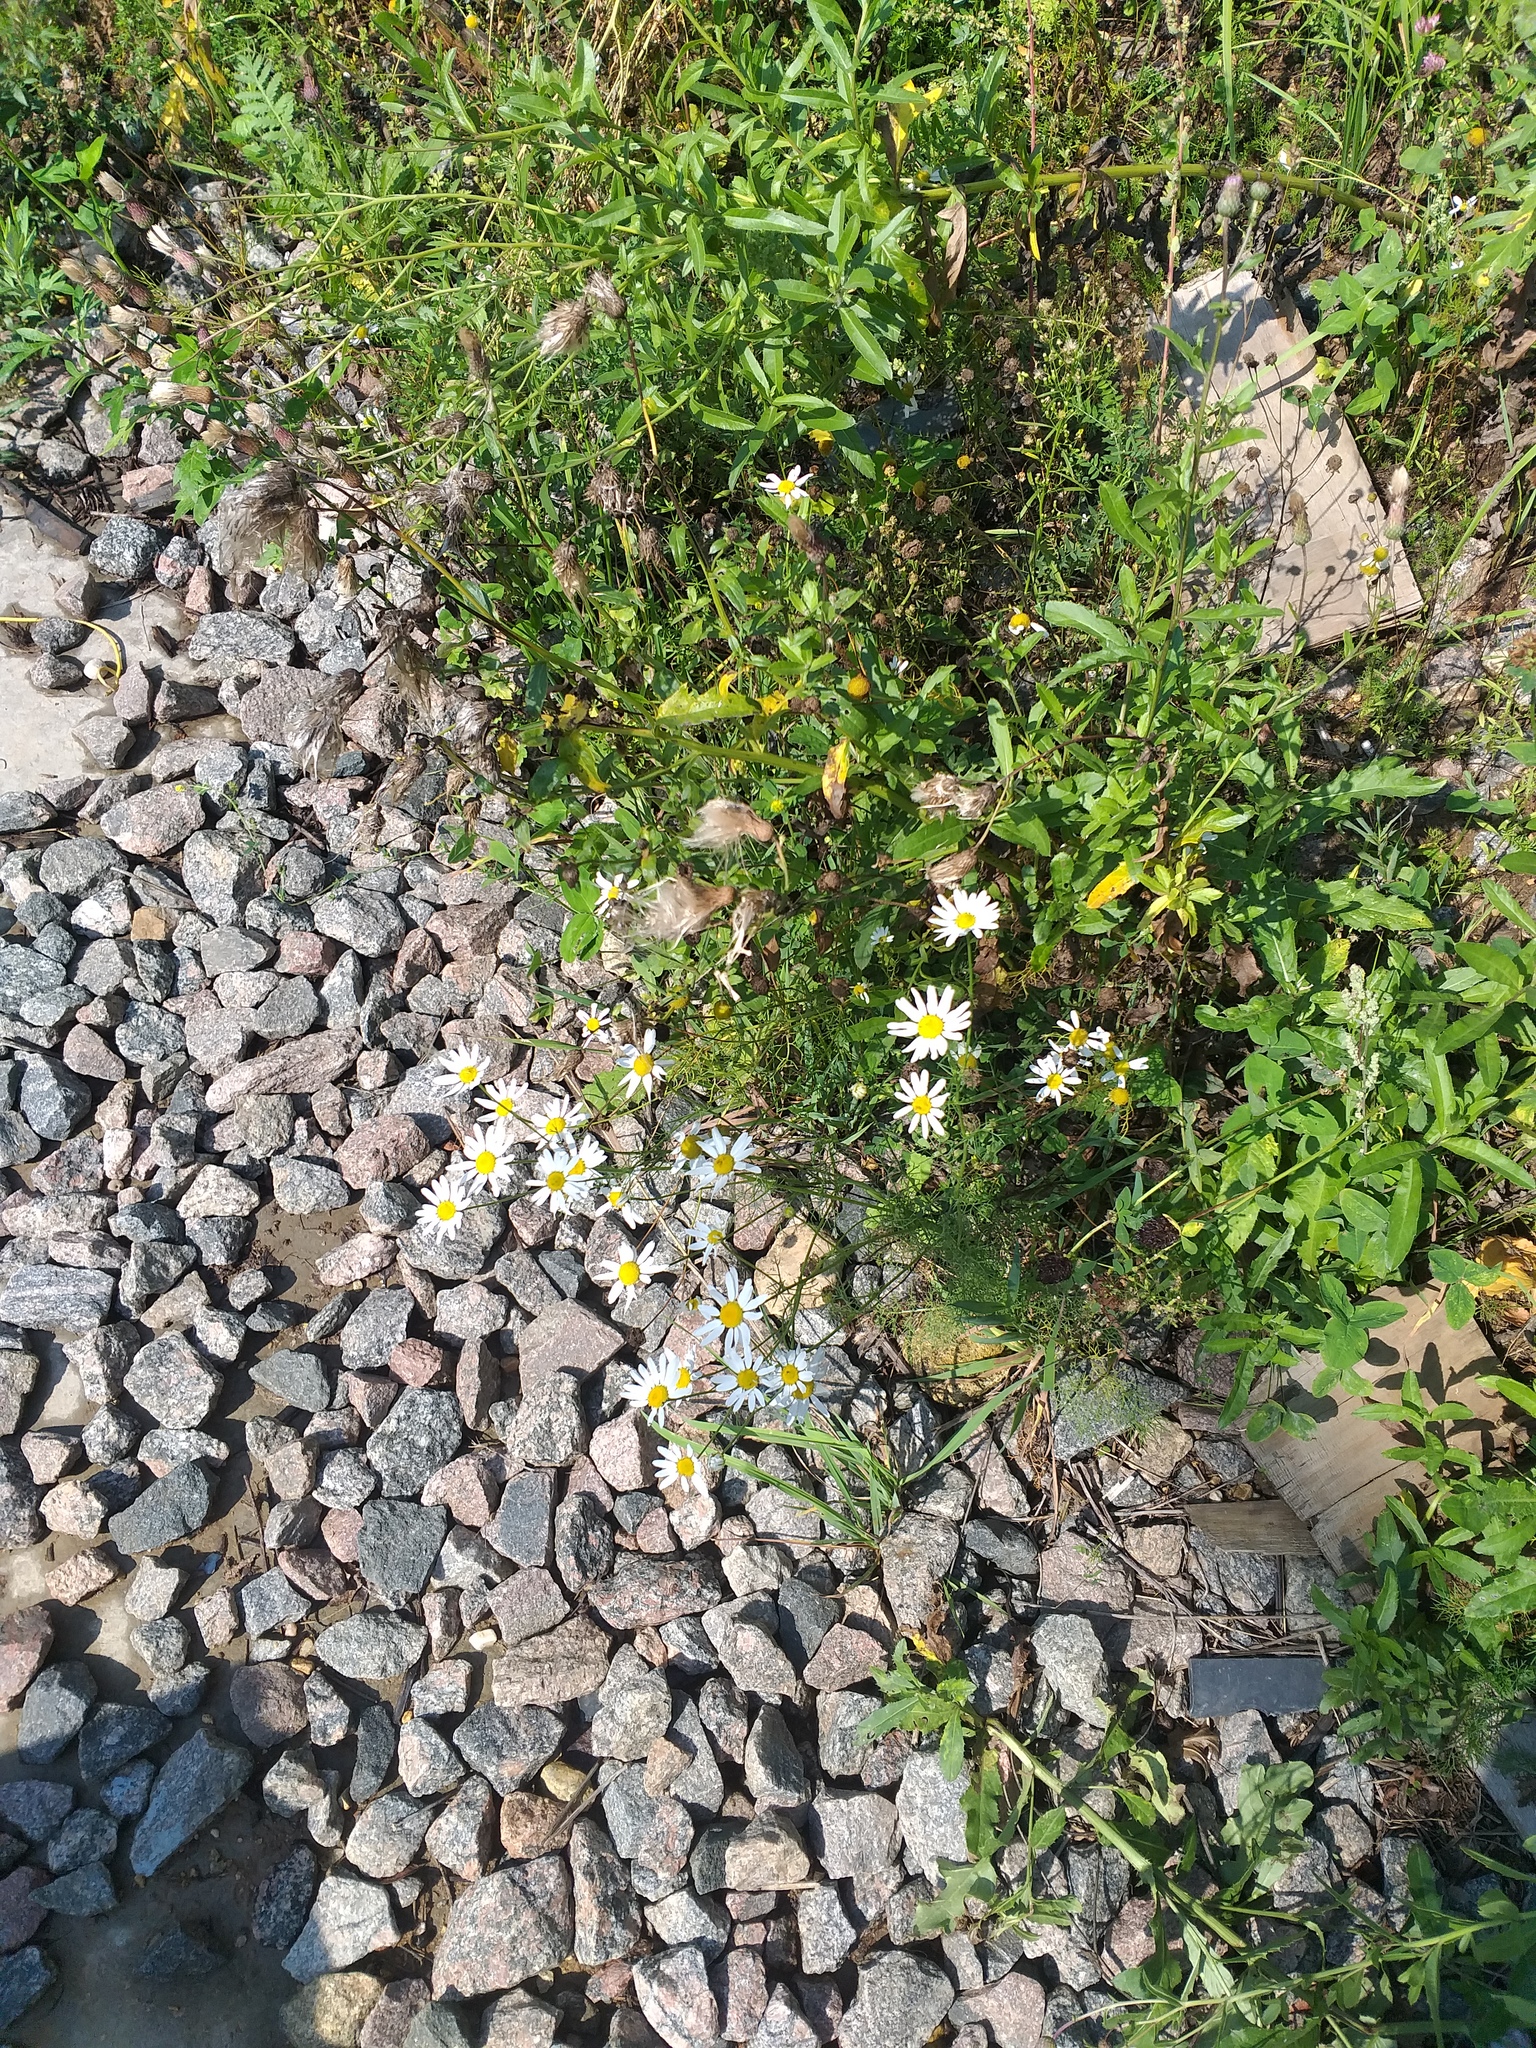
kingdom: Plantae
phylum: Tracheophyta
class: Magnoliopsida
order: Asterales
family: Asteraceae
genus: Tripleurospermum
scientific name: Tripleurospermum inodorum
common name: Scentless mayweed
